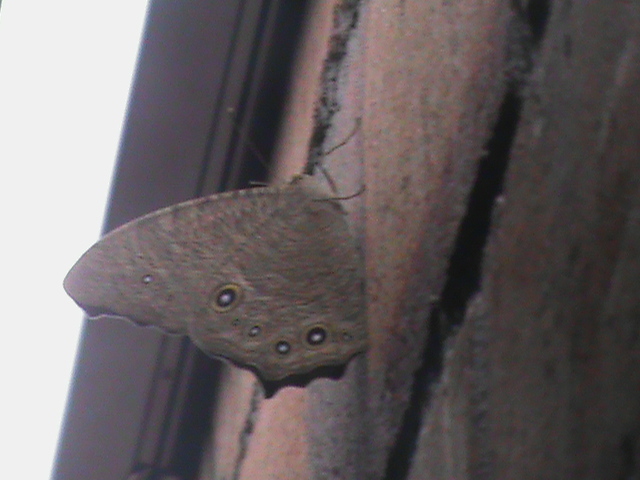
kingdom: Animalia
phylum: Arthropoda
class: Insecta
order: Lepidoptera
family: Nymphalidae
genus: Melanitis
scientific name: Melanitis leda
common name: Twilight brown
